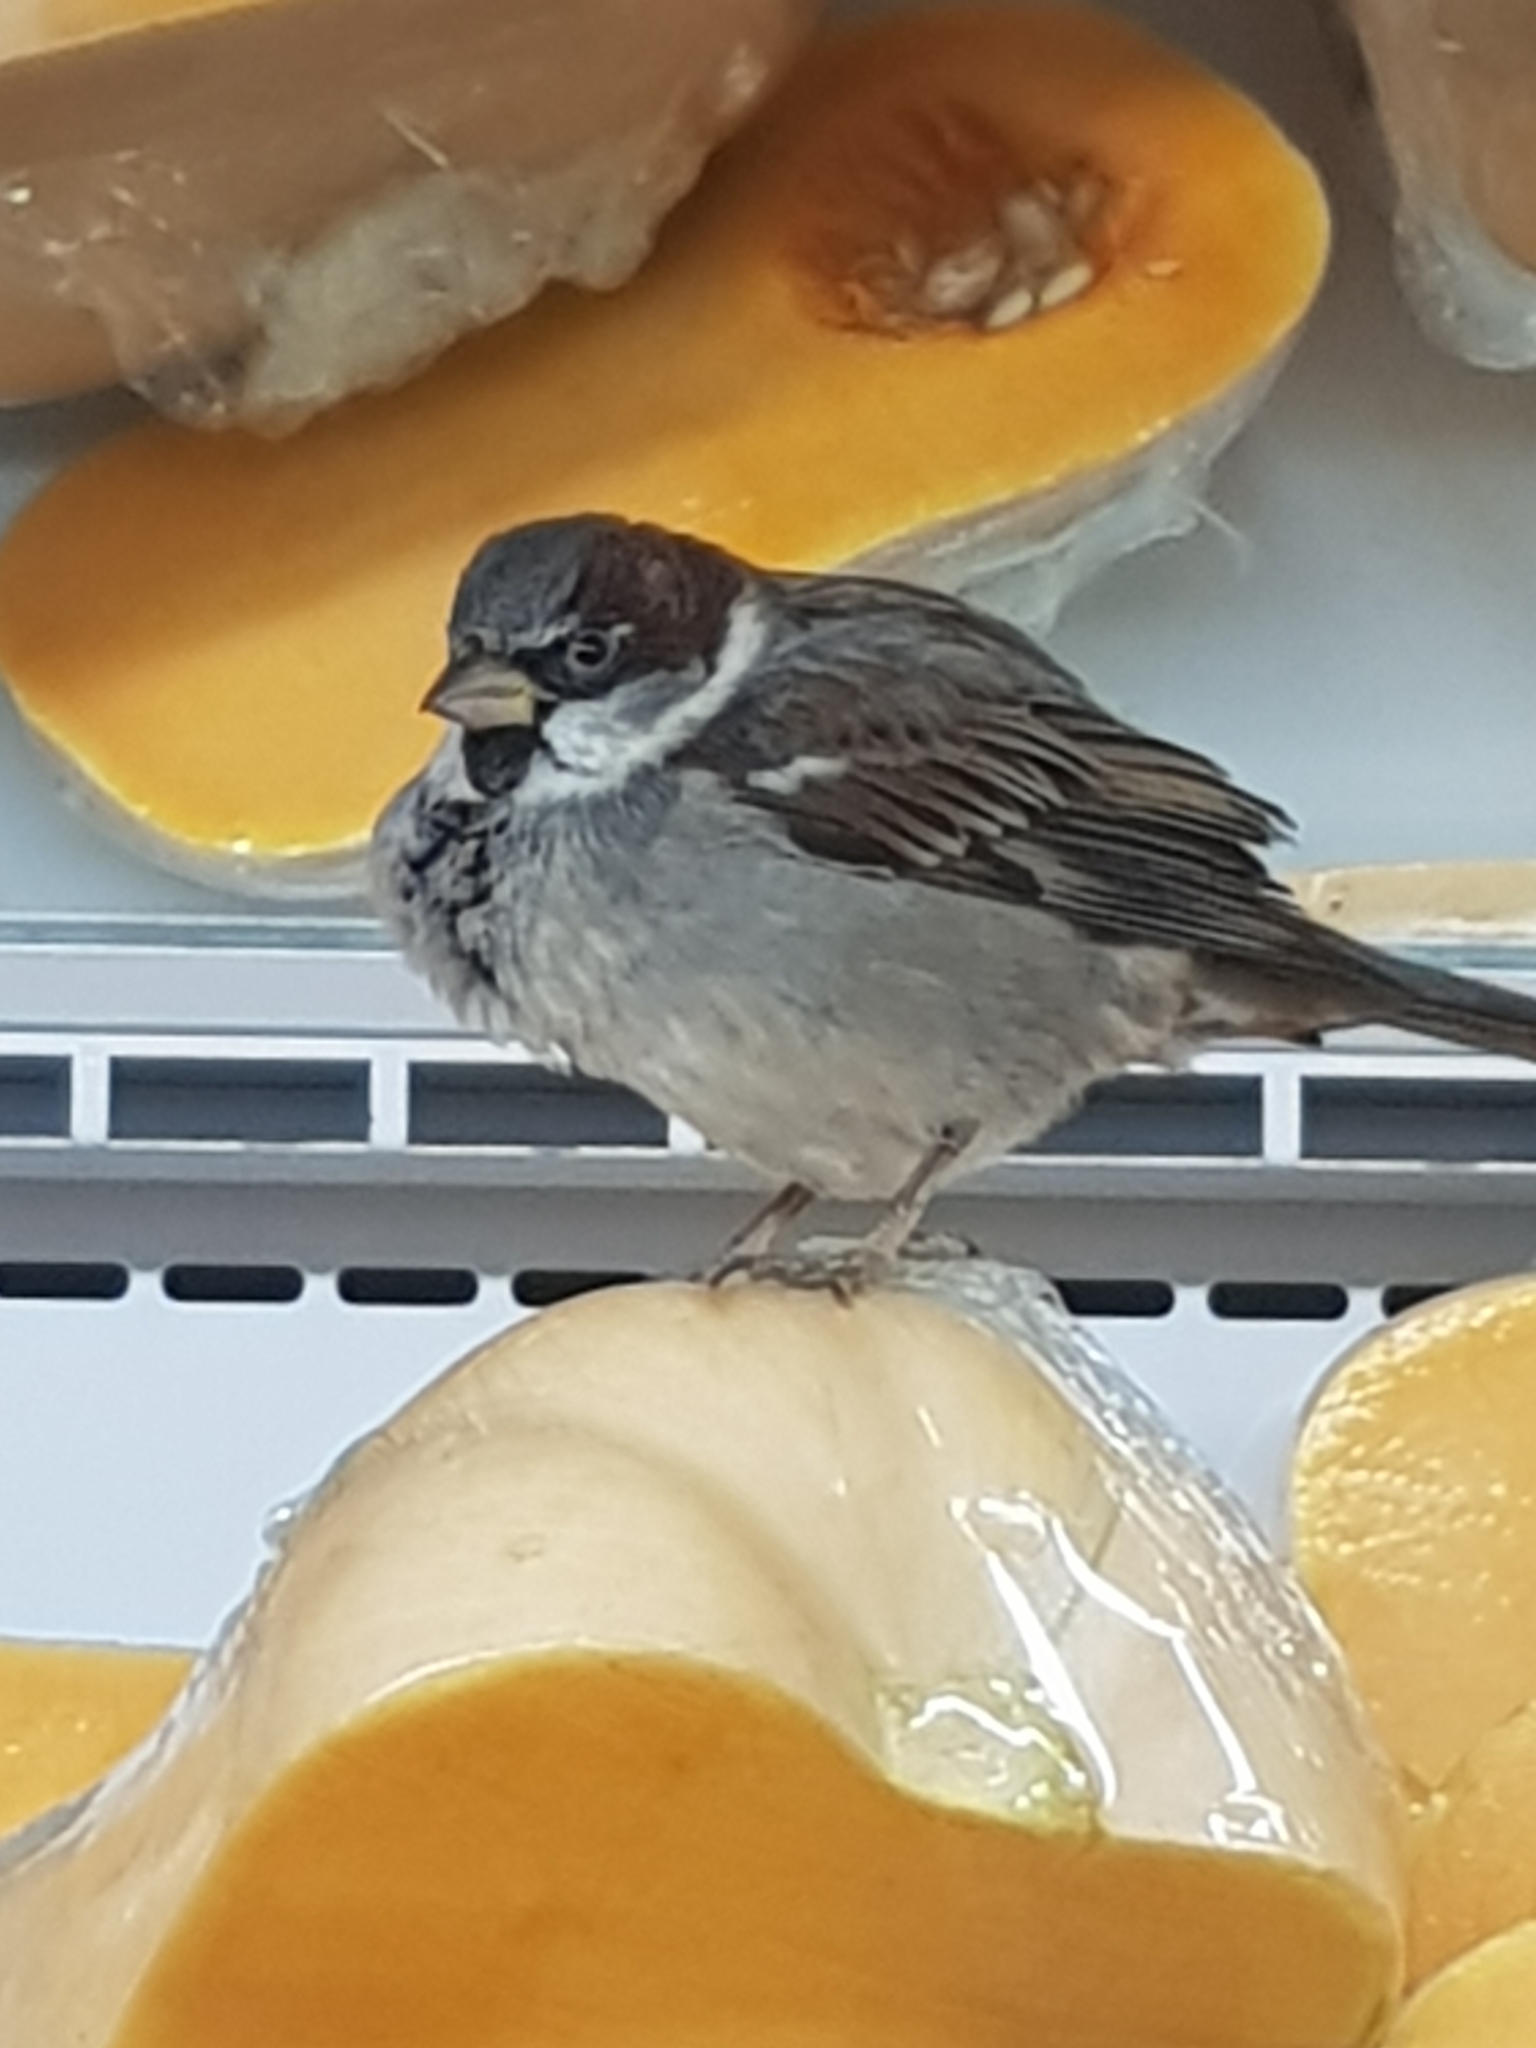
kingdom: Animalia
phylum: Chordata
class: Aves
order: Passeriformes
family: Passeridae
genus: Passer
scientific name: Passer domesticus
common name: House sparrow
